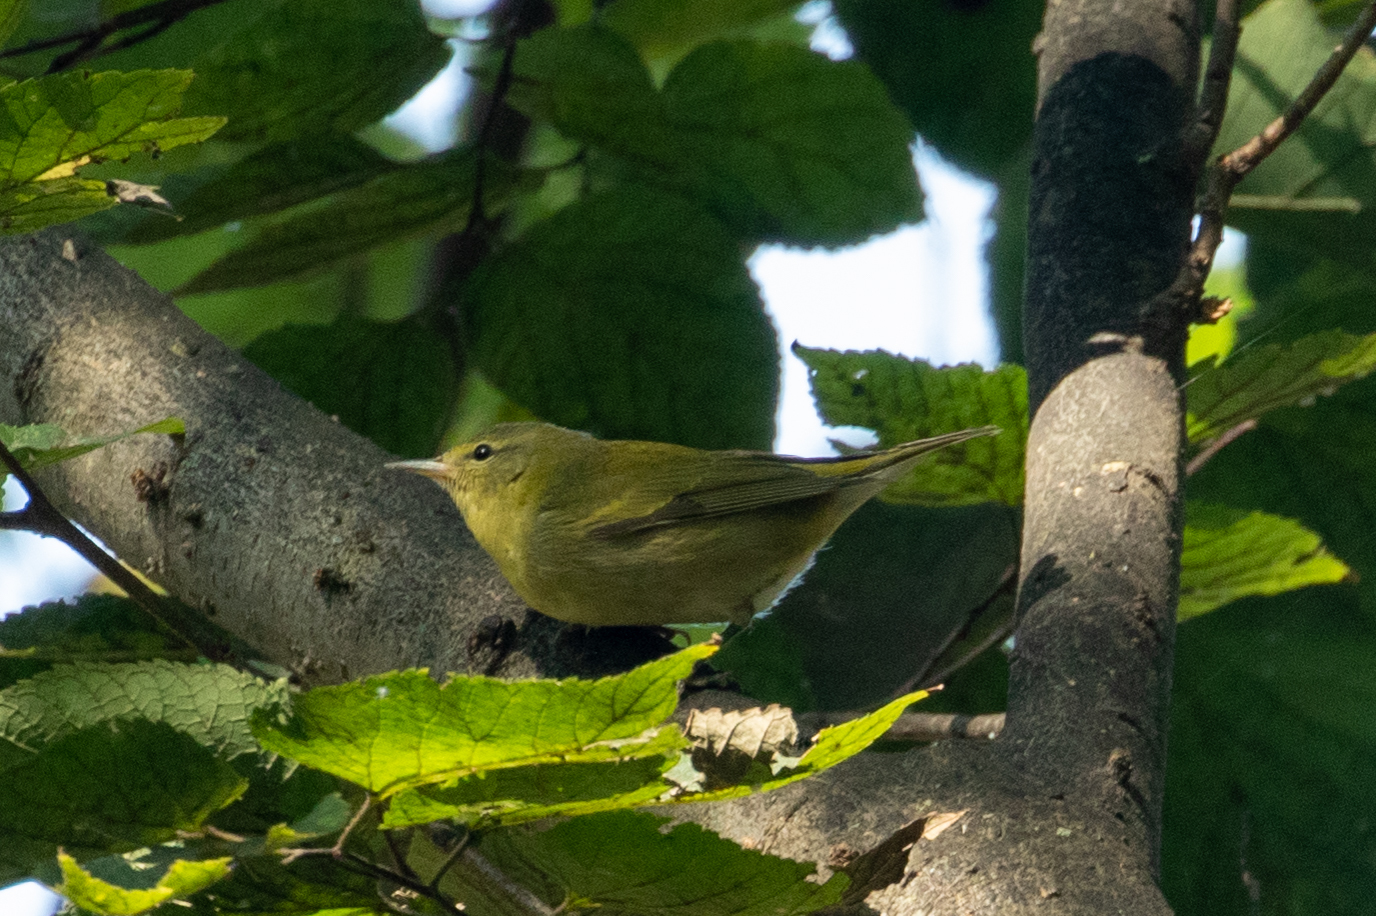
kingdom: Animalia
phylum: Chordata
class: Aves
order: Passeriformes
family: Parulidae
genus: Leiothlypis
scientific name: Leiothlypis peregrina
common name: Tennessee warbler
